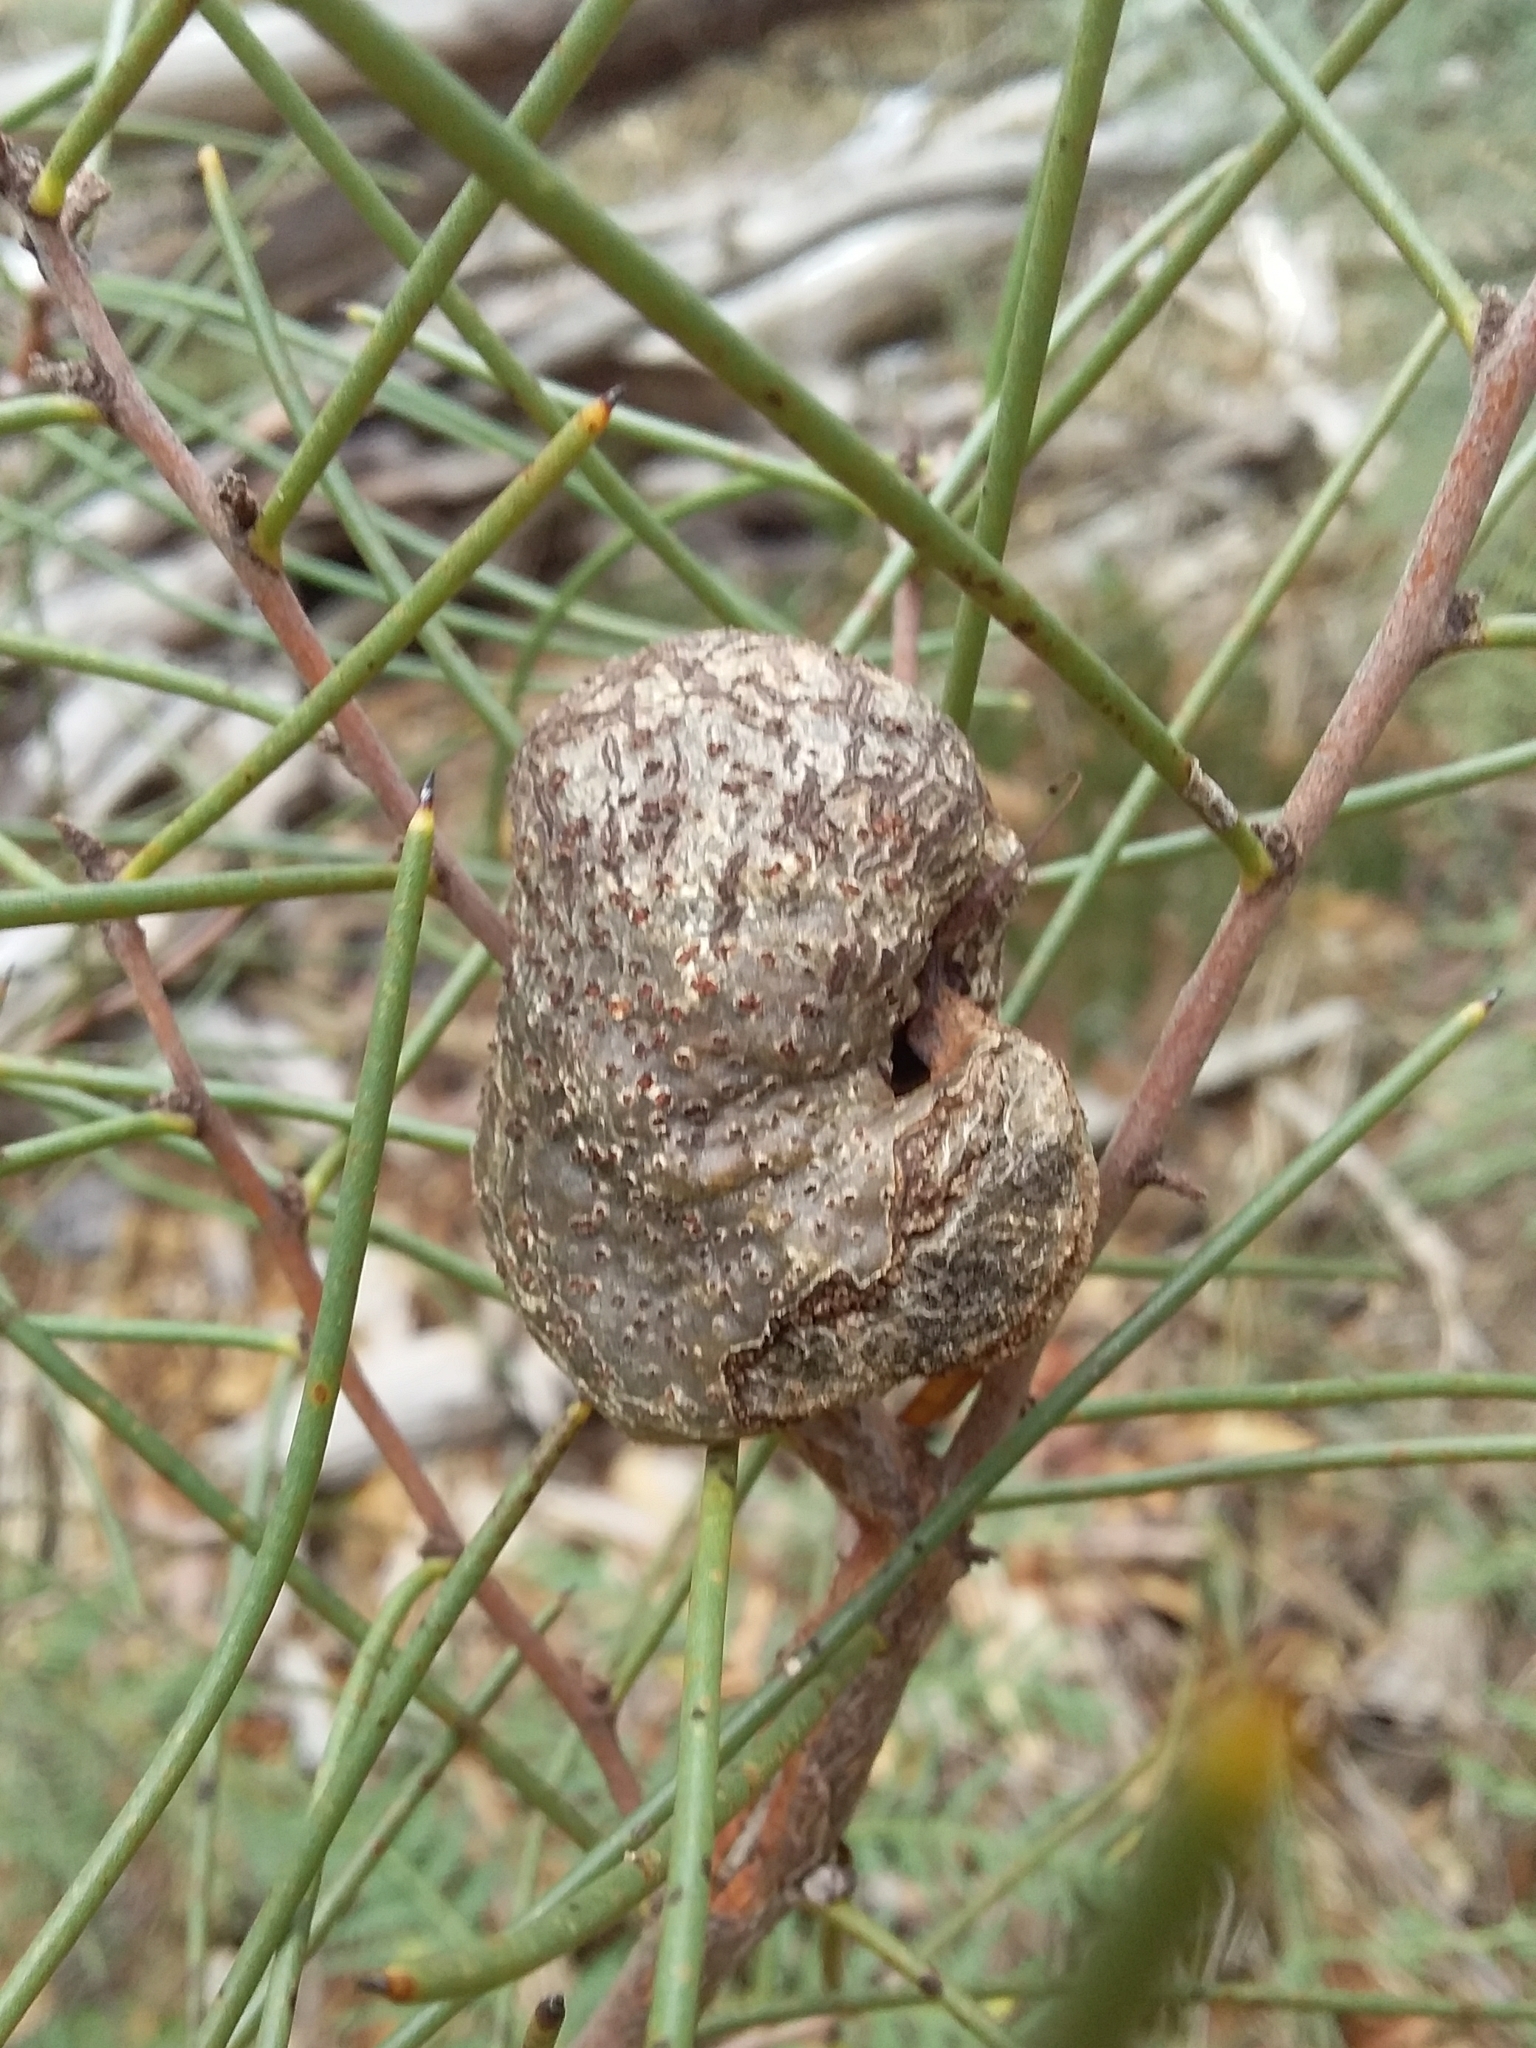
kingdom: Plantae
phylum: Tracheophyta
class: Magnoliopsida
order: Proteales
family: Proteaceae
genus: Hakea
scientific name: Hakea rostrata
